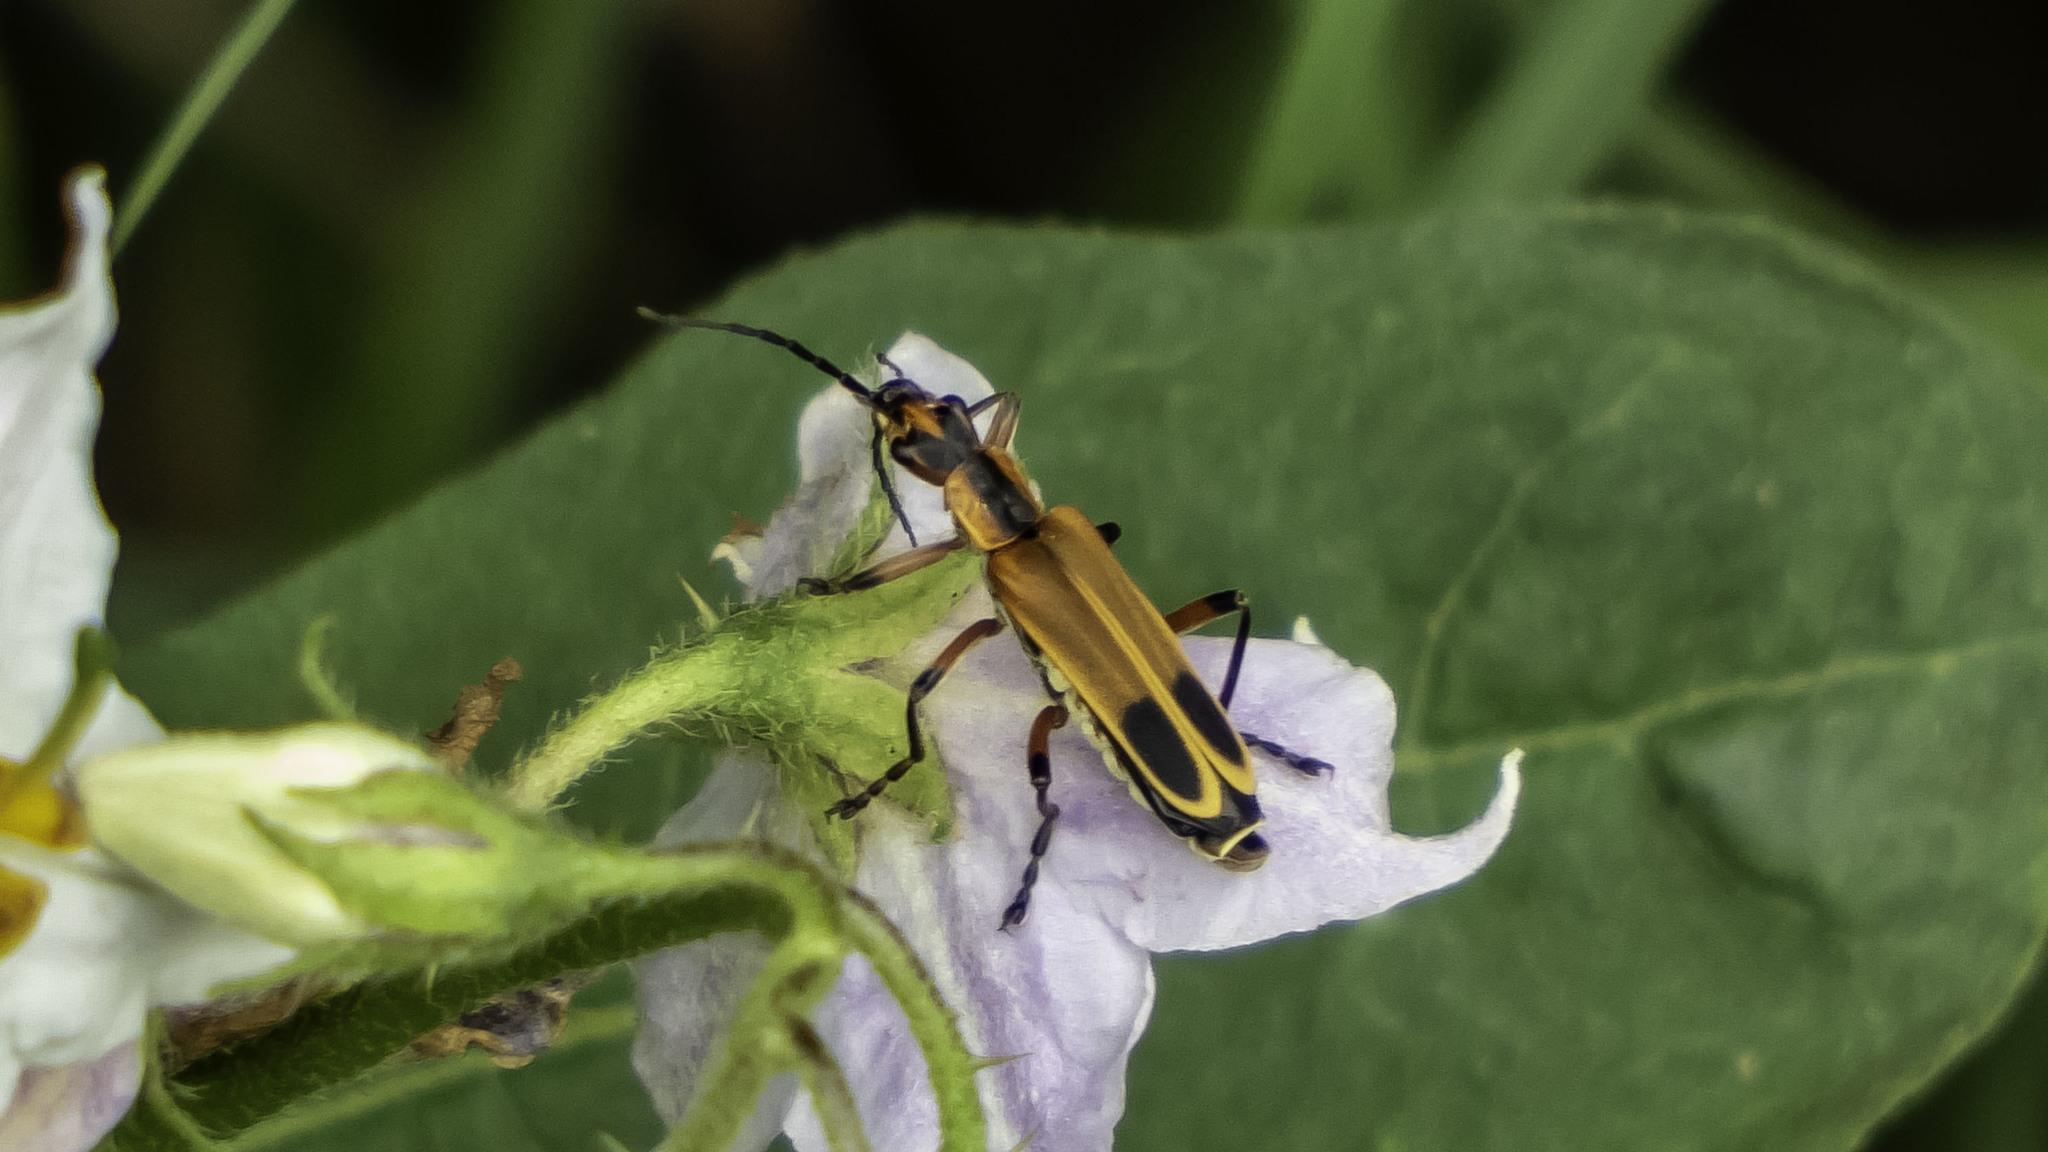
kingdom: Animalia
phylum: Arthropoda
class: Insecta
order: Coleoptera
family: Cantharidae
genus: Chauliognathus
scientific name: Chauliognathus marginatus
